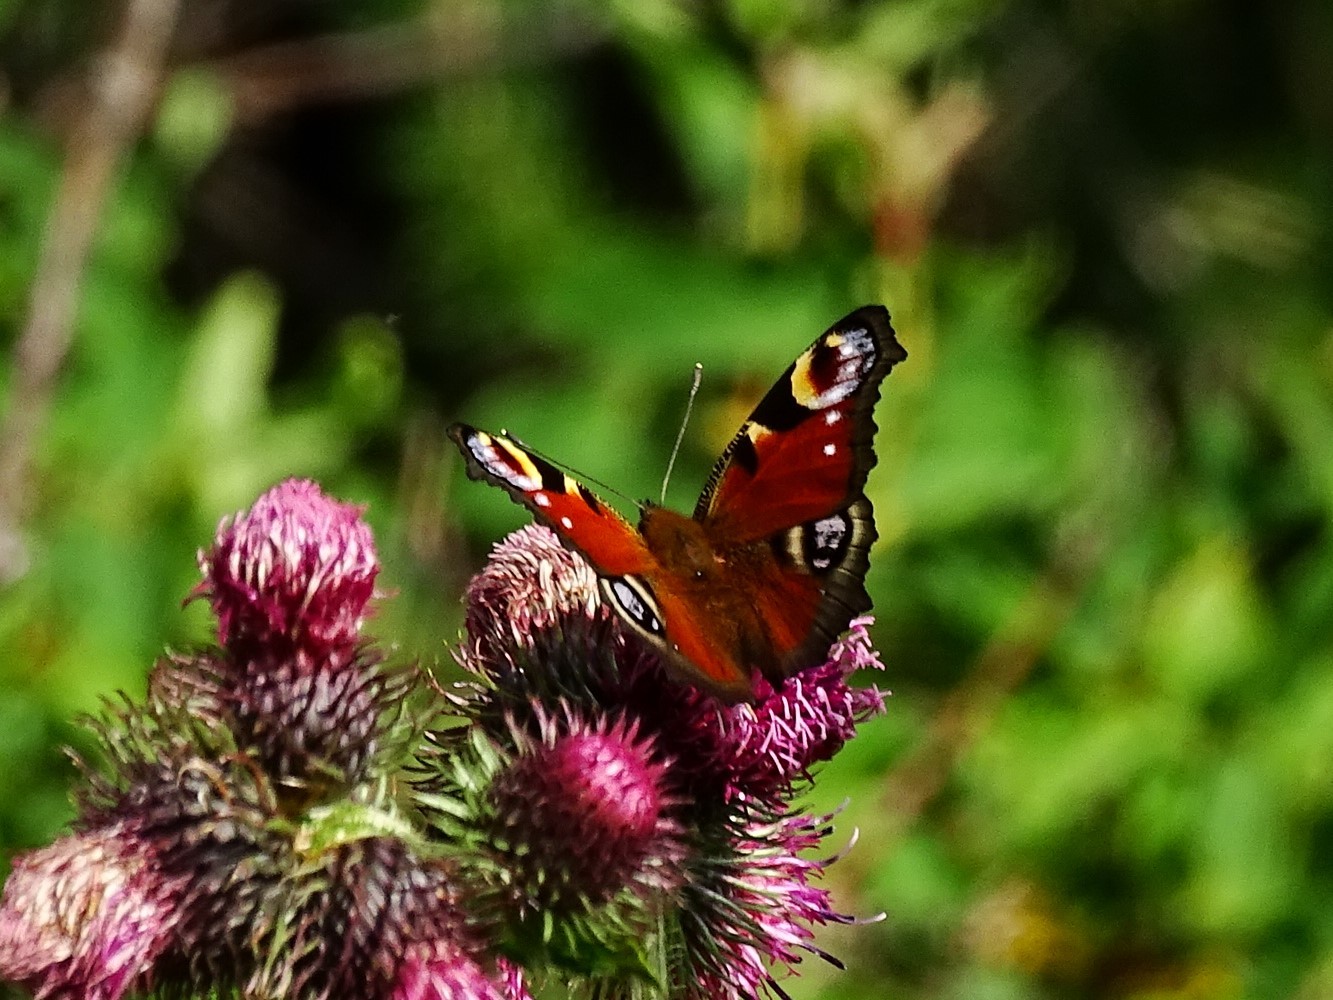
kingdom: Animalia
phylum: Arthropoda
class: Insecta
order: Lepidoptera
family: Nymphalidae
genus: Aglais
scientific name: Aglais io
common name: Peacock
